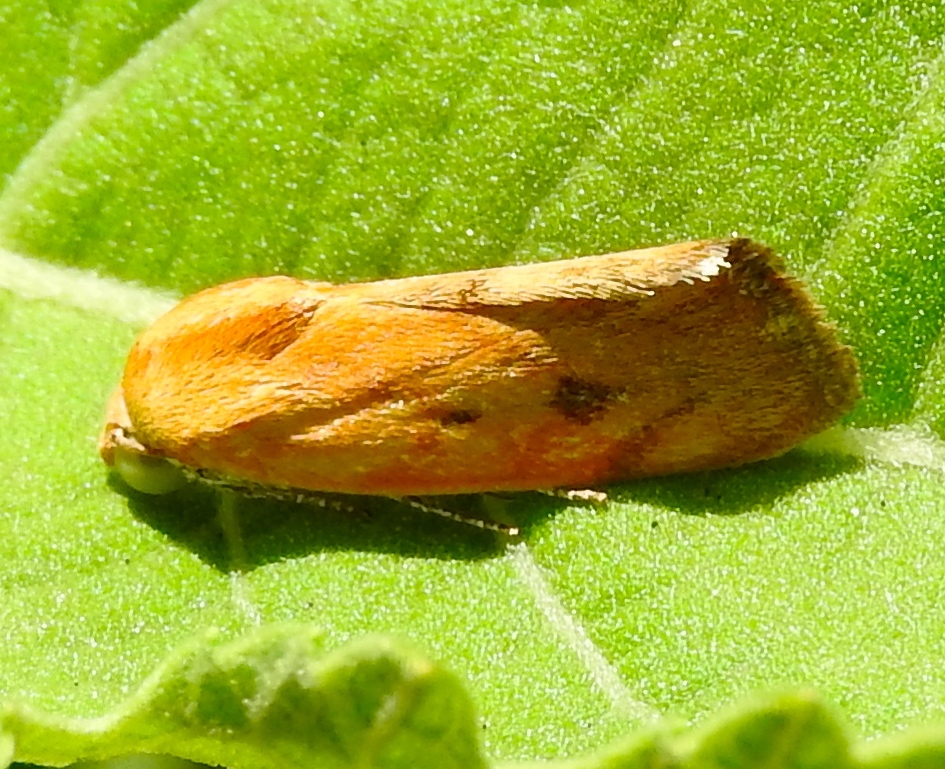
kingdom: Animalia
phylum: Arthropoda
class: Insecta
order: Lepidoptera
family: Noctuidae
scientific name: Noctuidae
